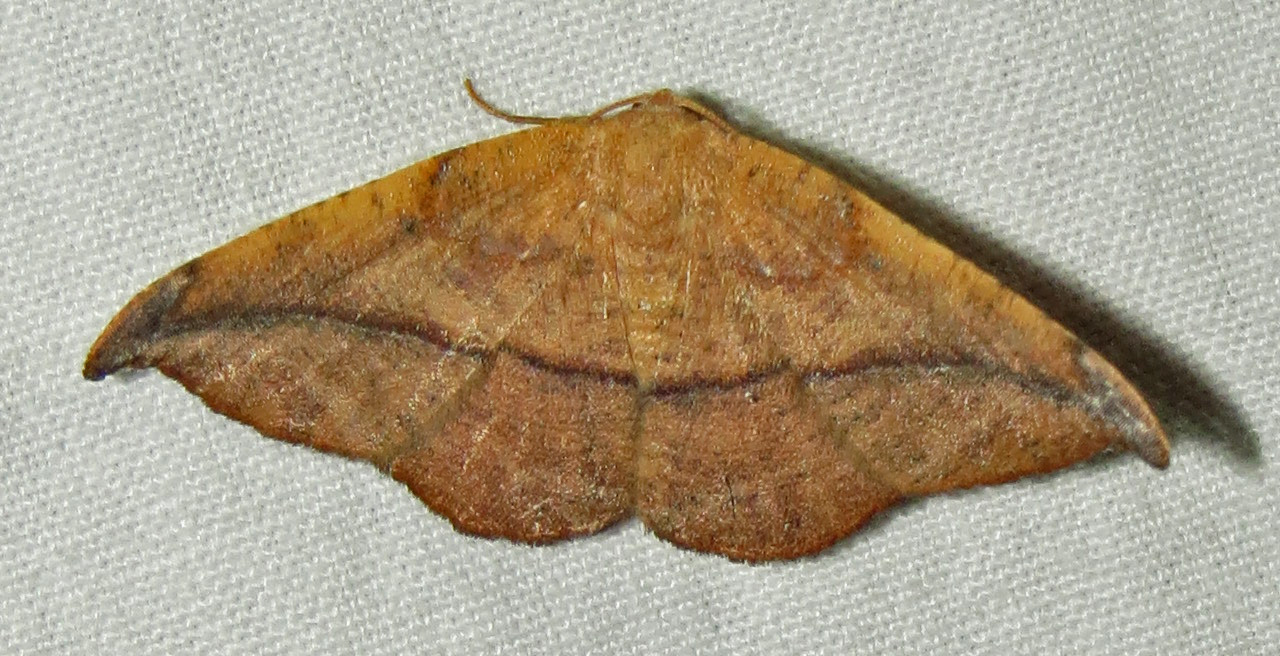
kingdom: Animalia
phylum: Arthropoda
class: Insecta
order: Lepidoptera
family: Geometridae
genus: Patalene
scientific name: Patalene olyzonaria
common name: Juniper geometer moth
